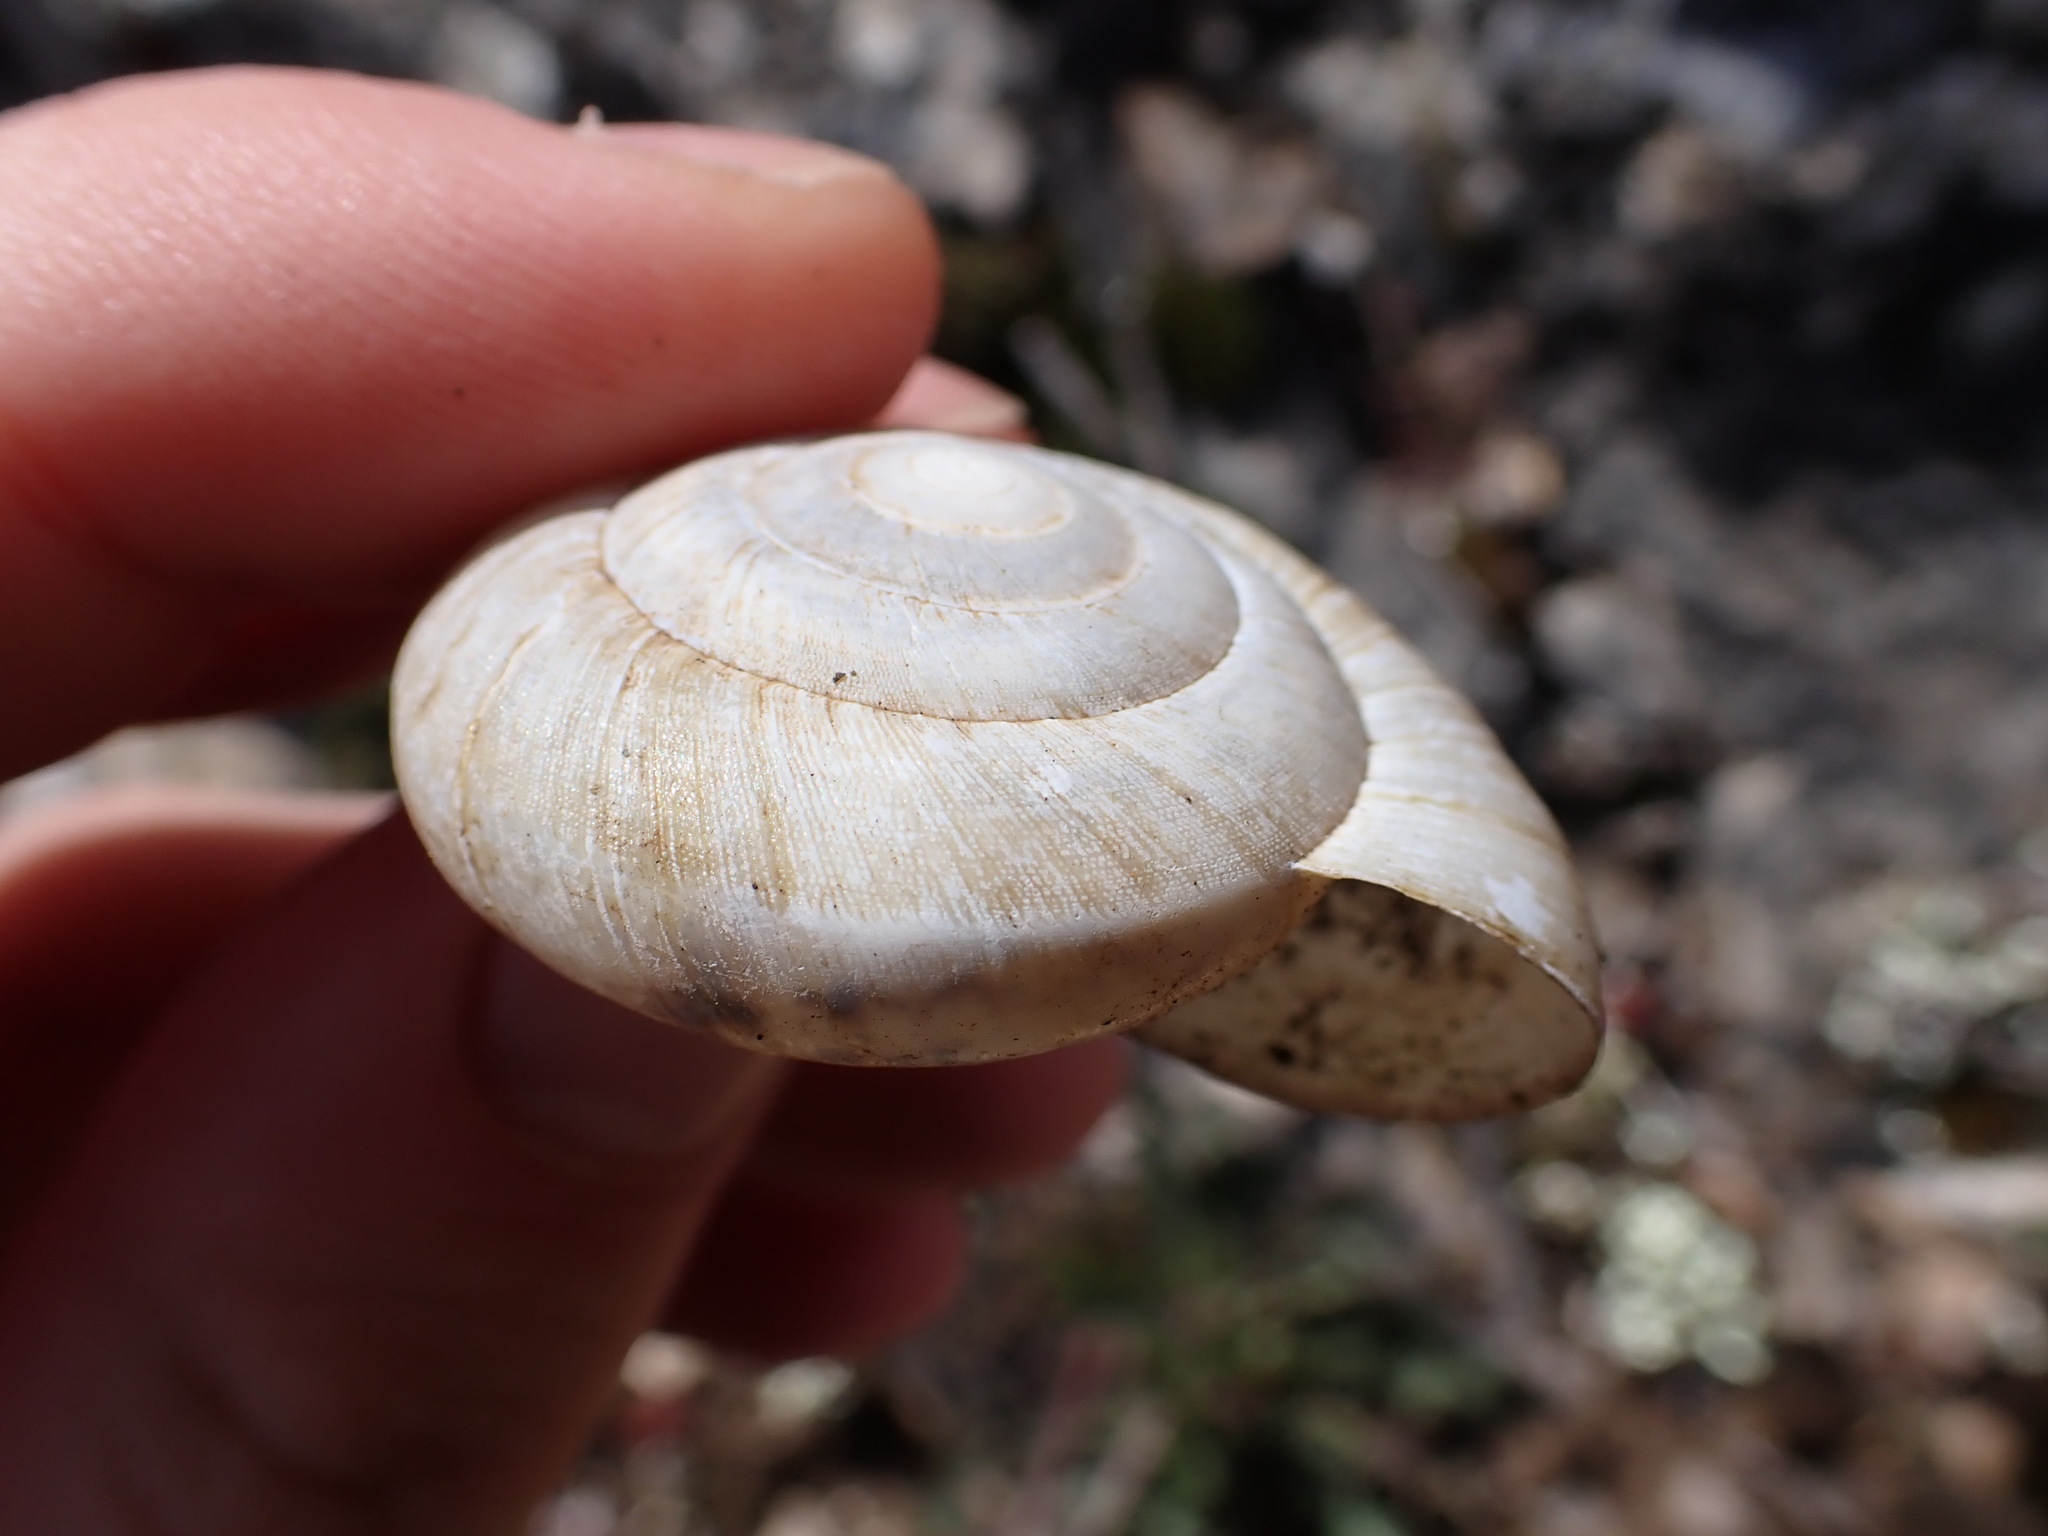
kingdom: Animalia
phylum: Mollusca
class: Gastropoda
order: Stylommatophora
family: Zonitidae
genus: Zonites
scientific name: Zonites algirus
